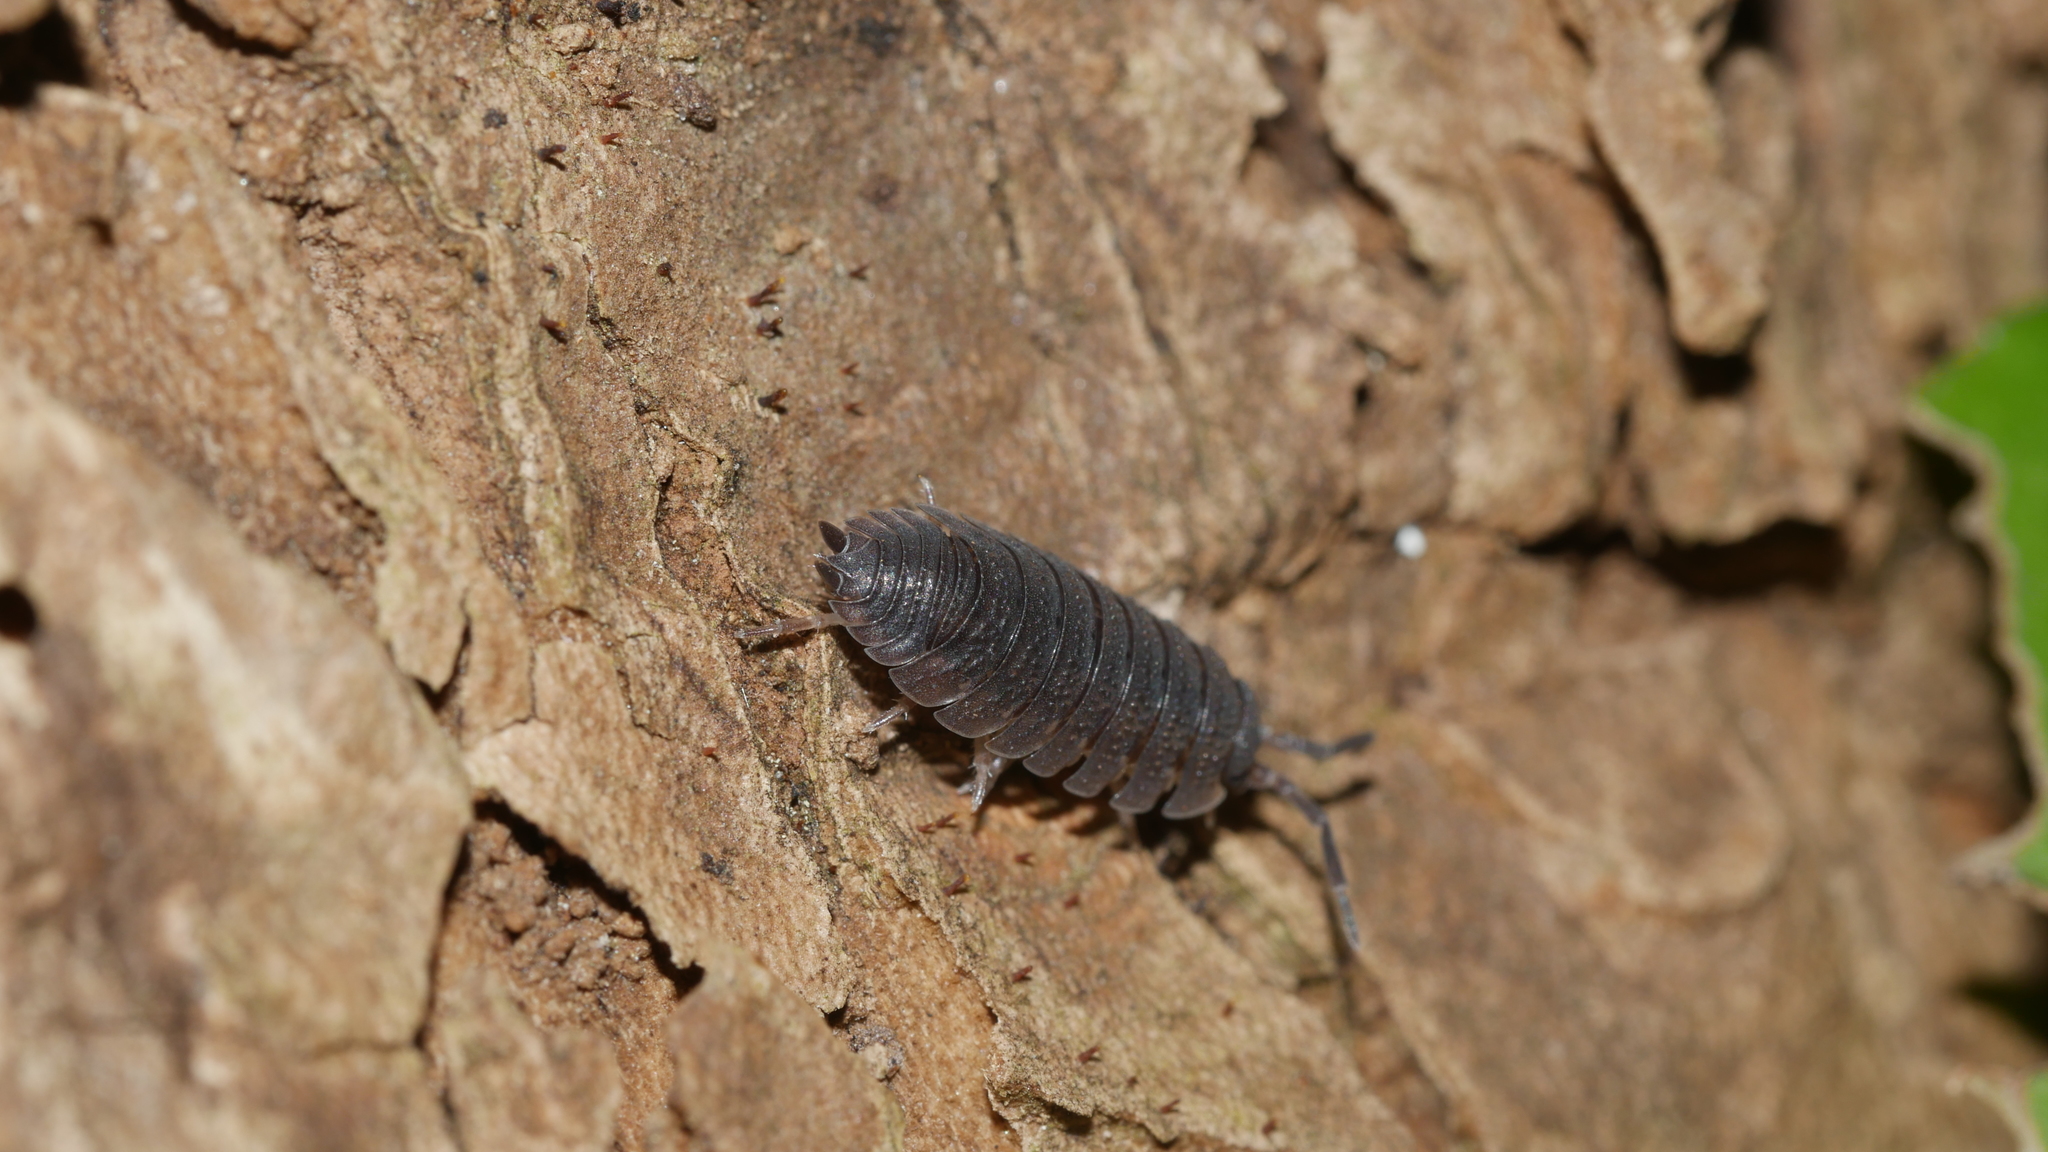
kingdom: Animalia
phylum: Arthropoda
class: Malacostraca
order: Isopoda
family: Porcellionidae
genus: Porcellio
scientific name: Porcellio scaber
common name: Common rough woodlouse
